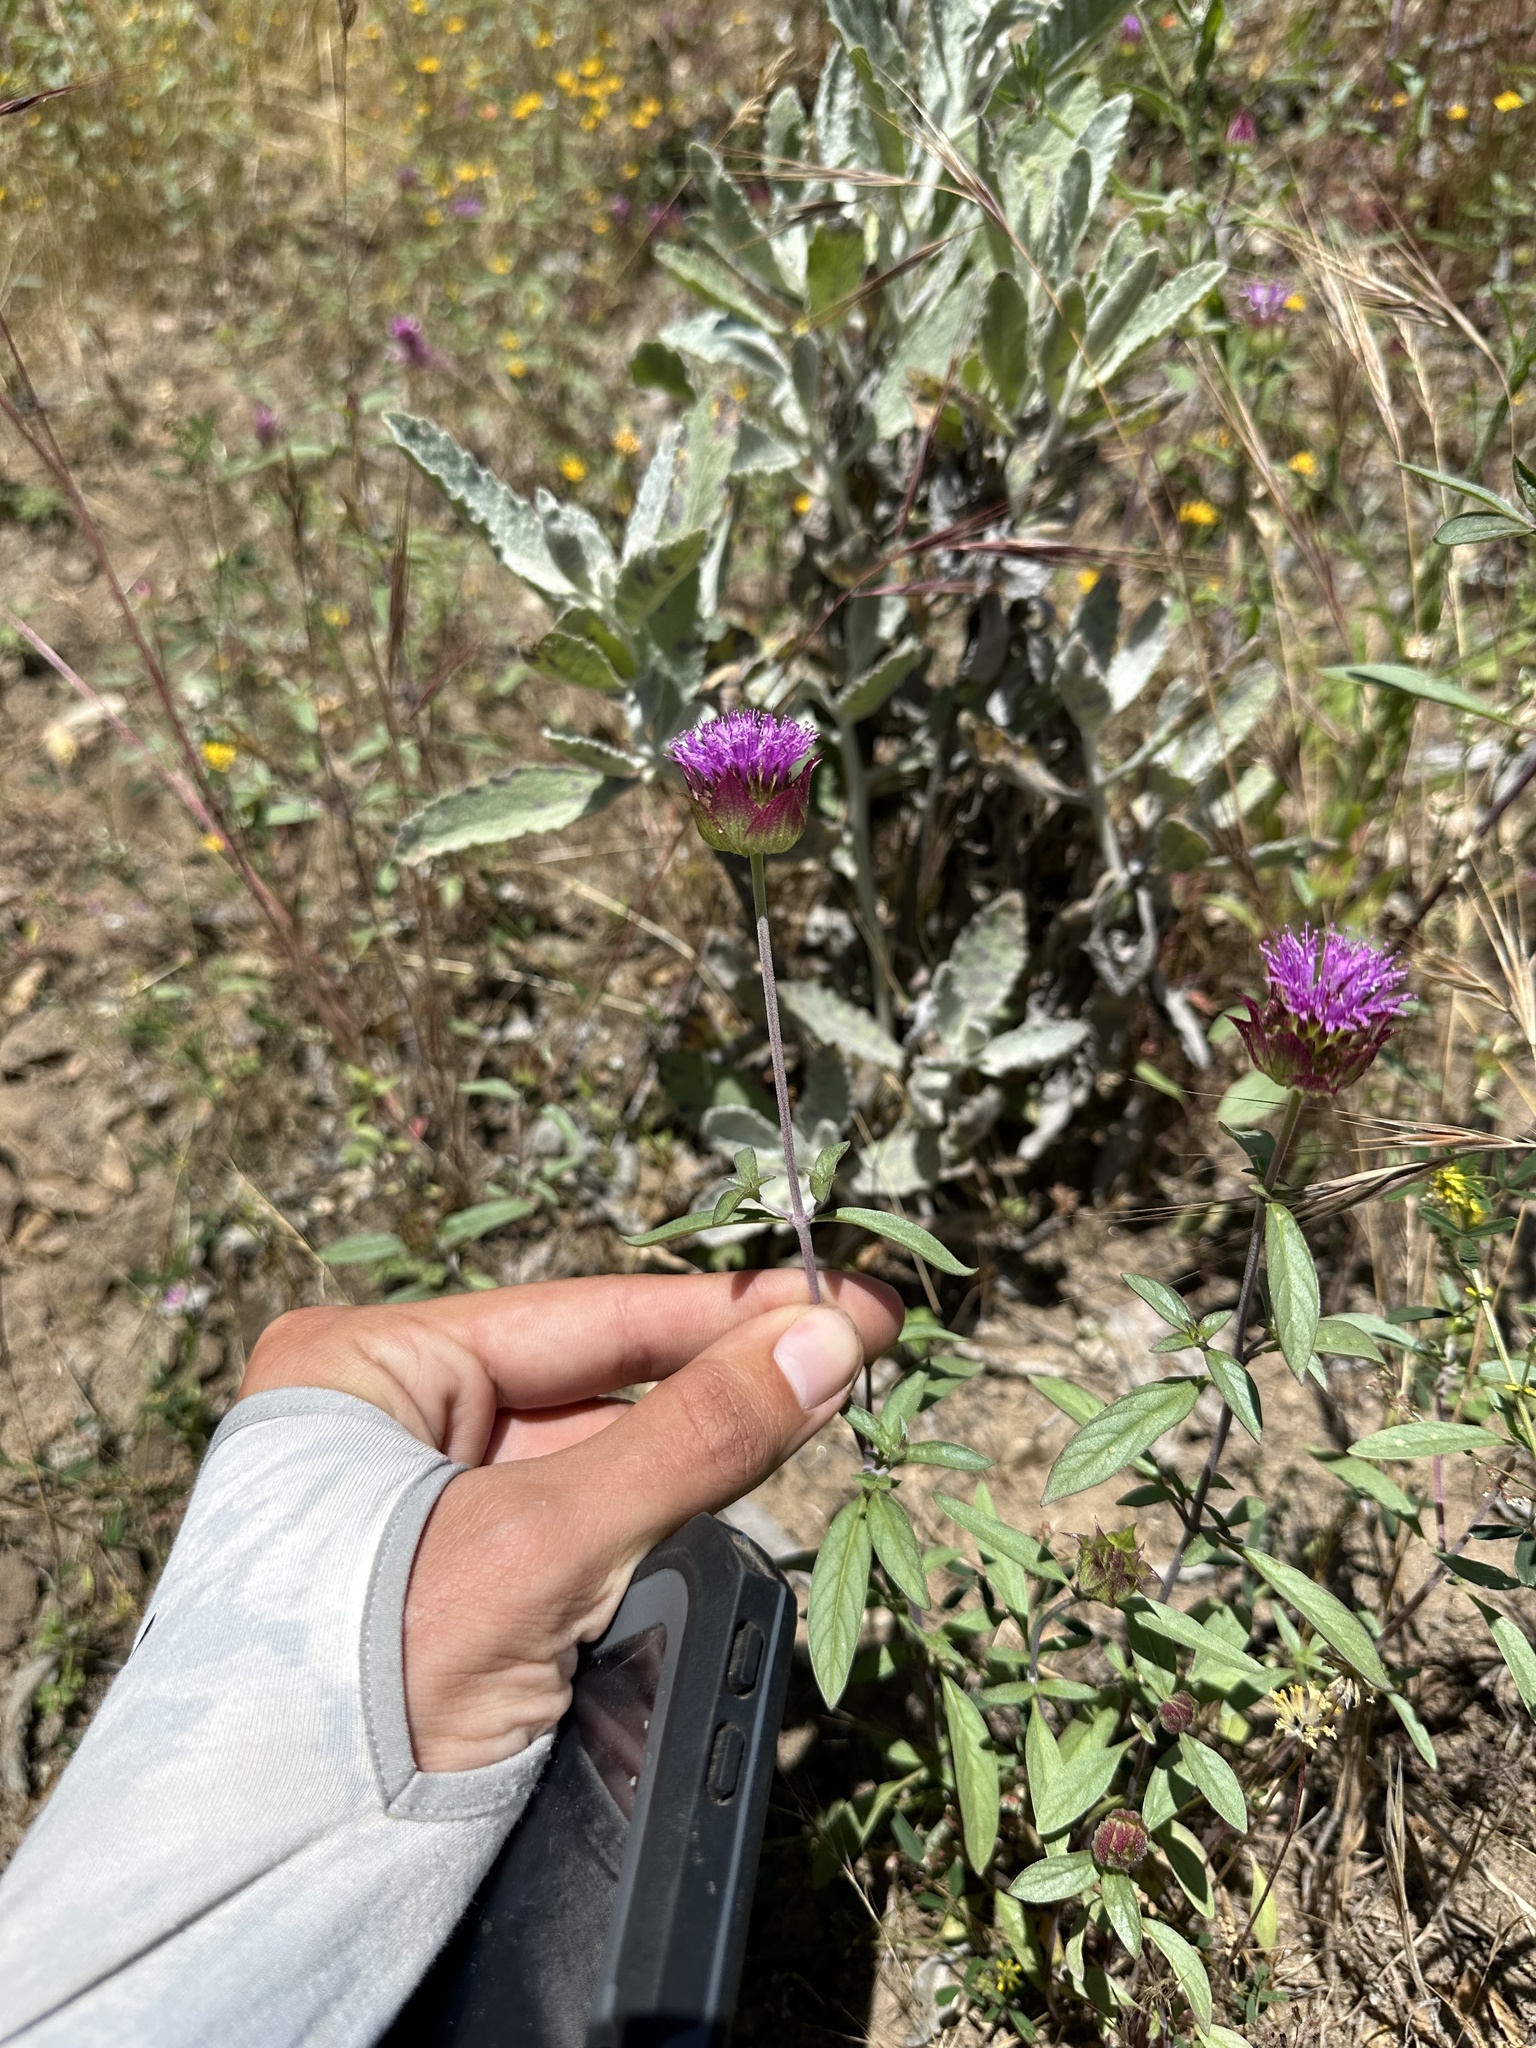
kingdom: Plantae
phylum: Tracheophyta
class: Magnoliopsida
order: Lamiales
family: Lamiaceae
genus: Monardella
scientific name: Monardella breweri
